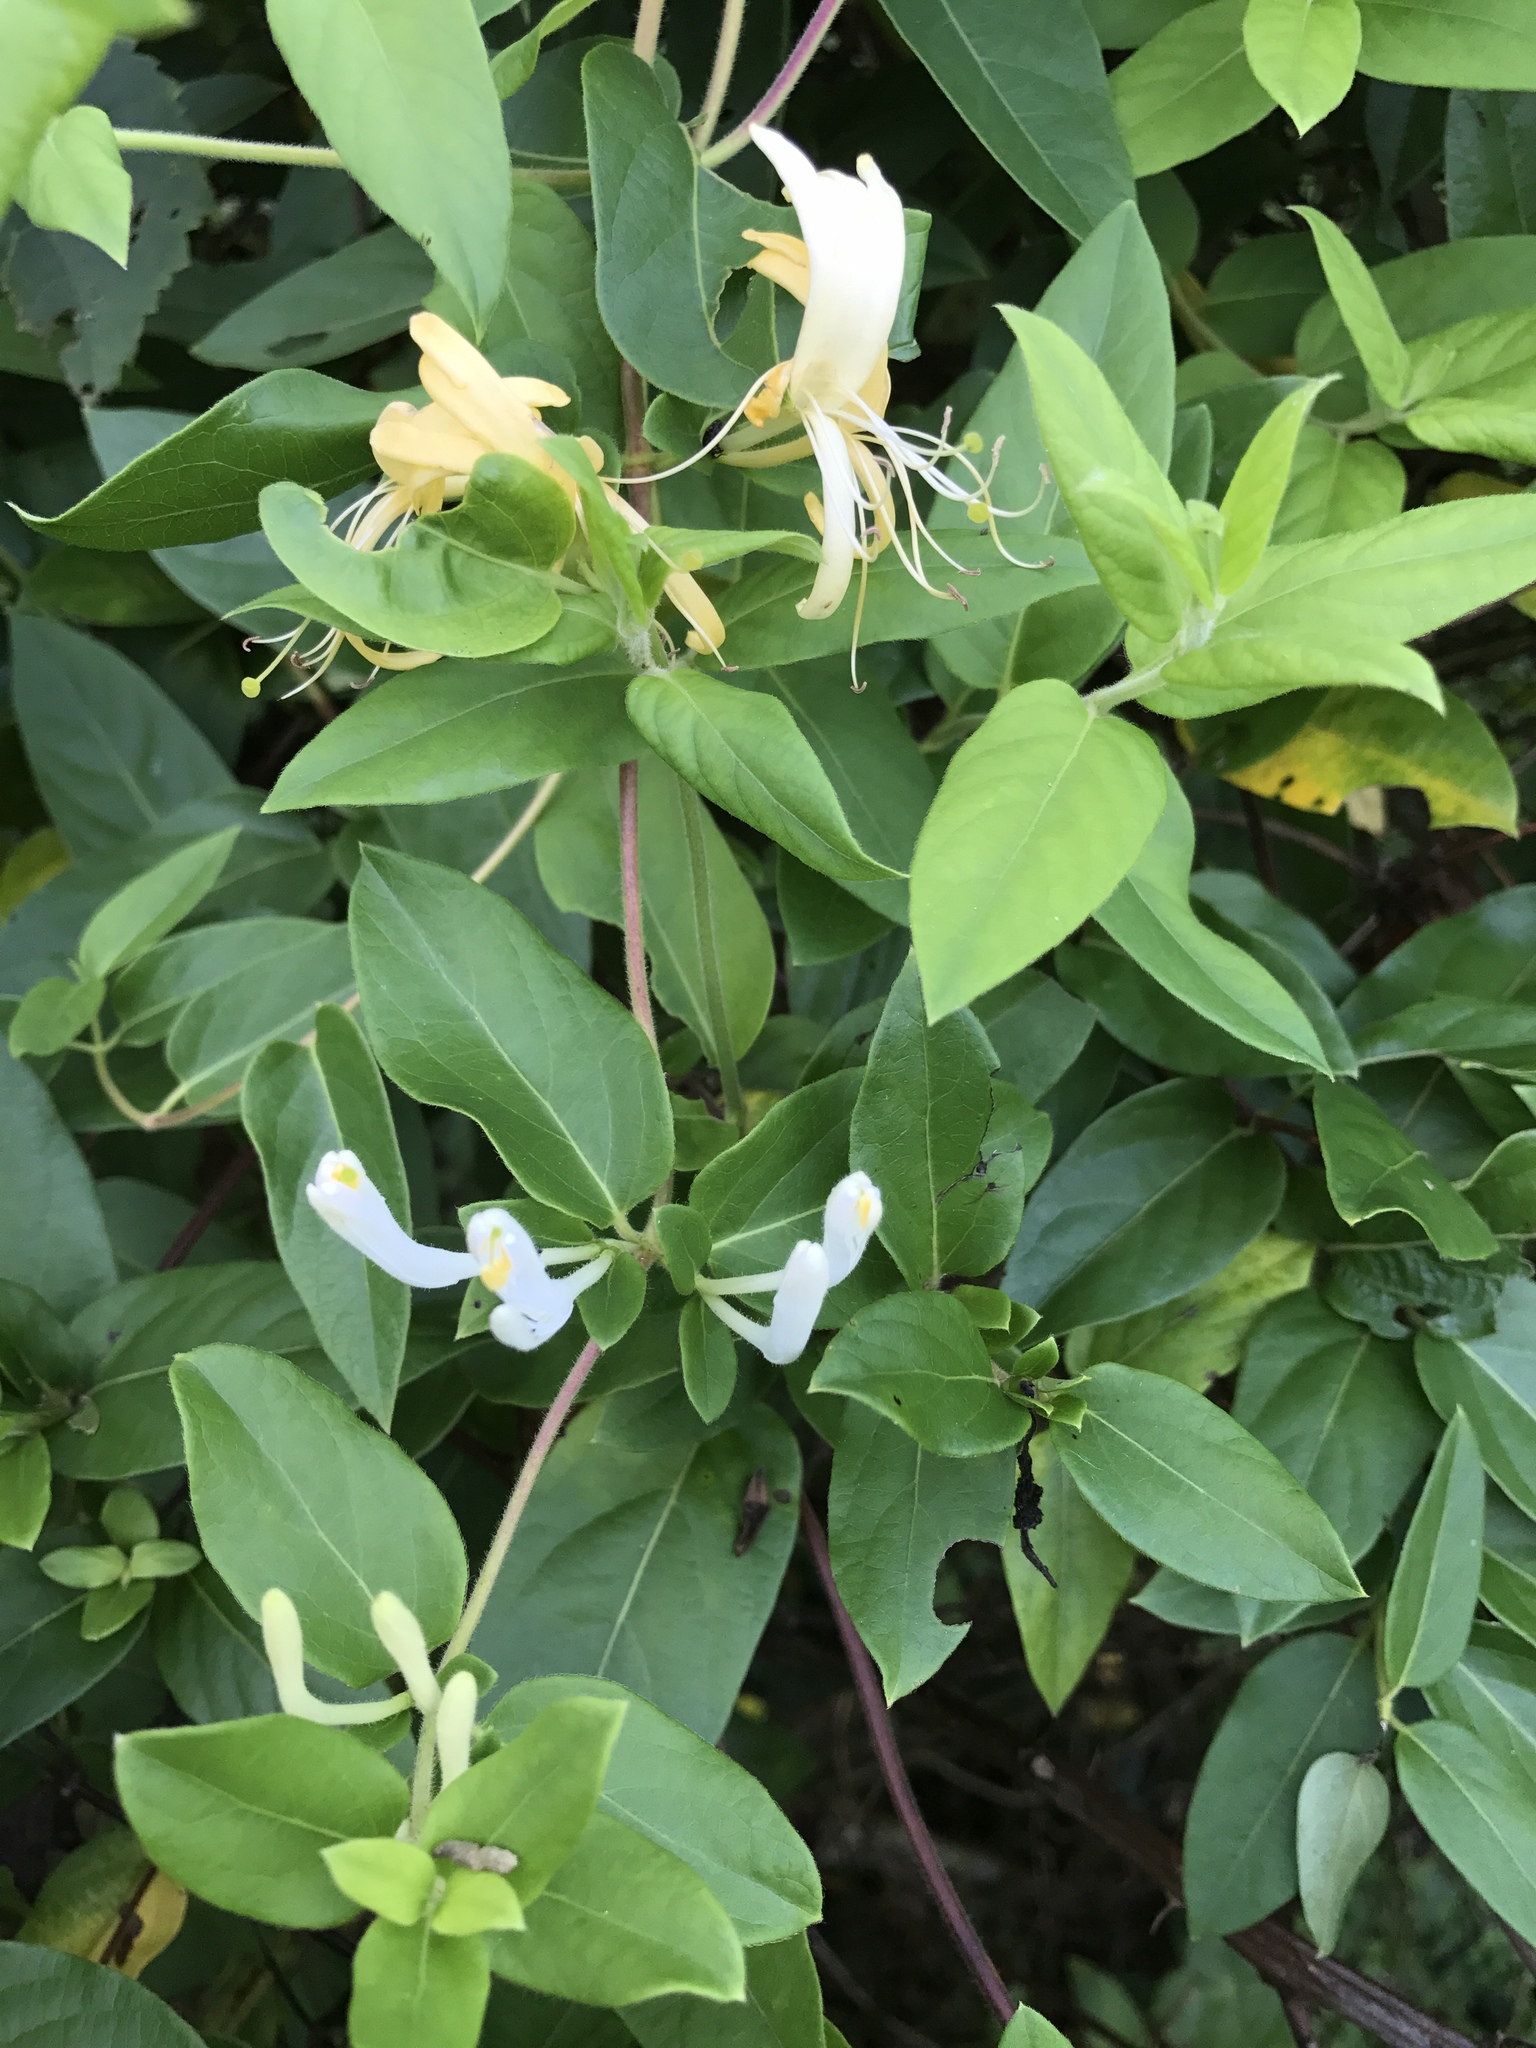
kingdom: Plantae
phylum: Tracheophyta
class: Magnoliopsida
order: Dipsacales
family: Caprifoliaceae
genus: Lonicera
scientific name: Lonicera japonica
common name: Japanese honeysuckle
